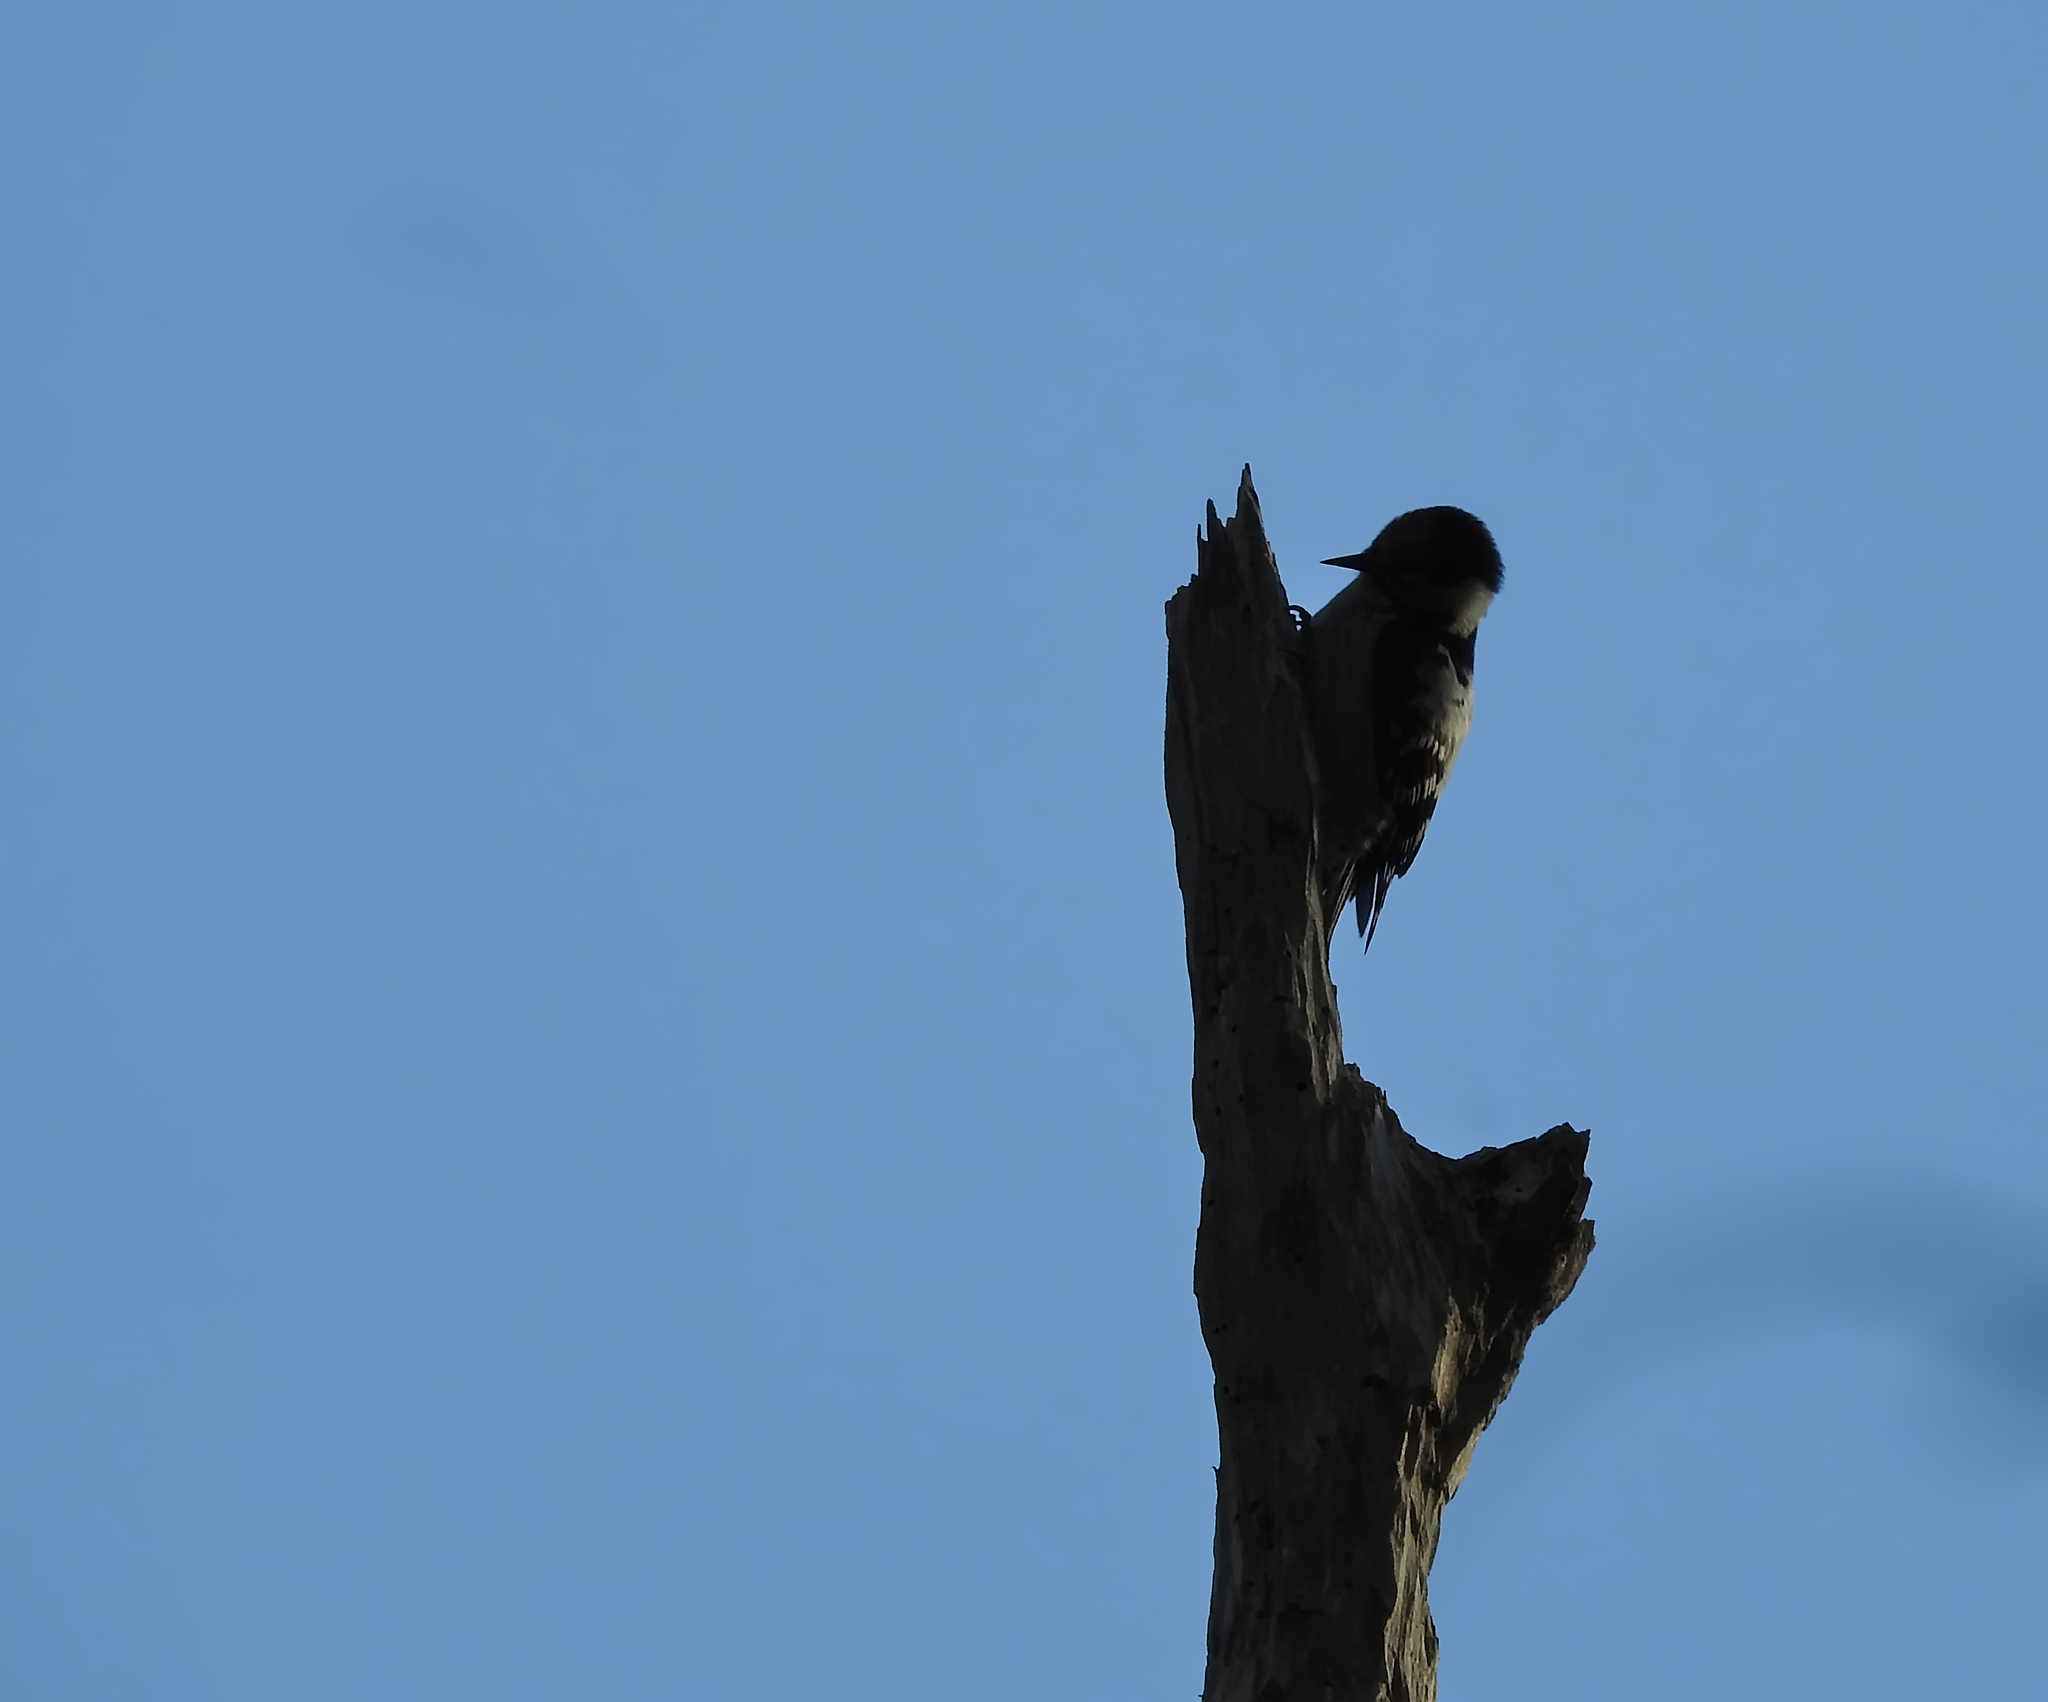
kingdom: Animalia
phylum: Chordata
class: Aves
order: Piciformes
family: Picidae
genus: Dryobates
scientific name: Dryobates minor
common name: Lesser spotted woodpecker
